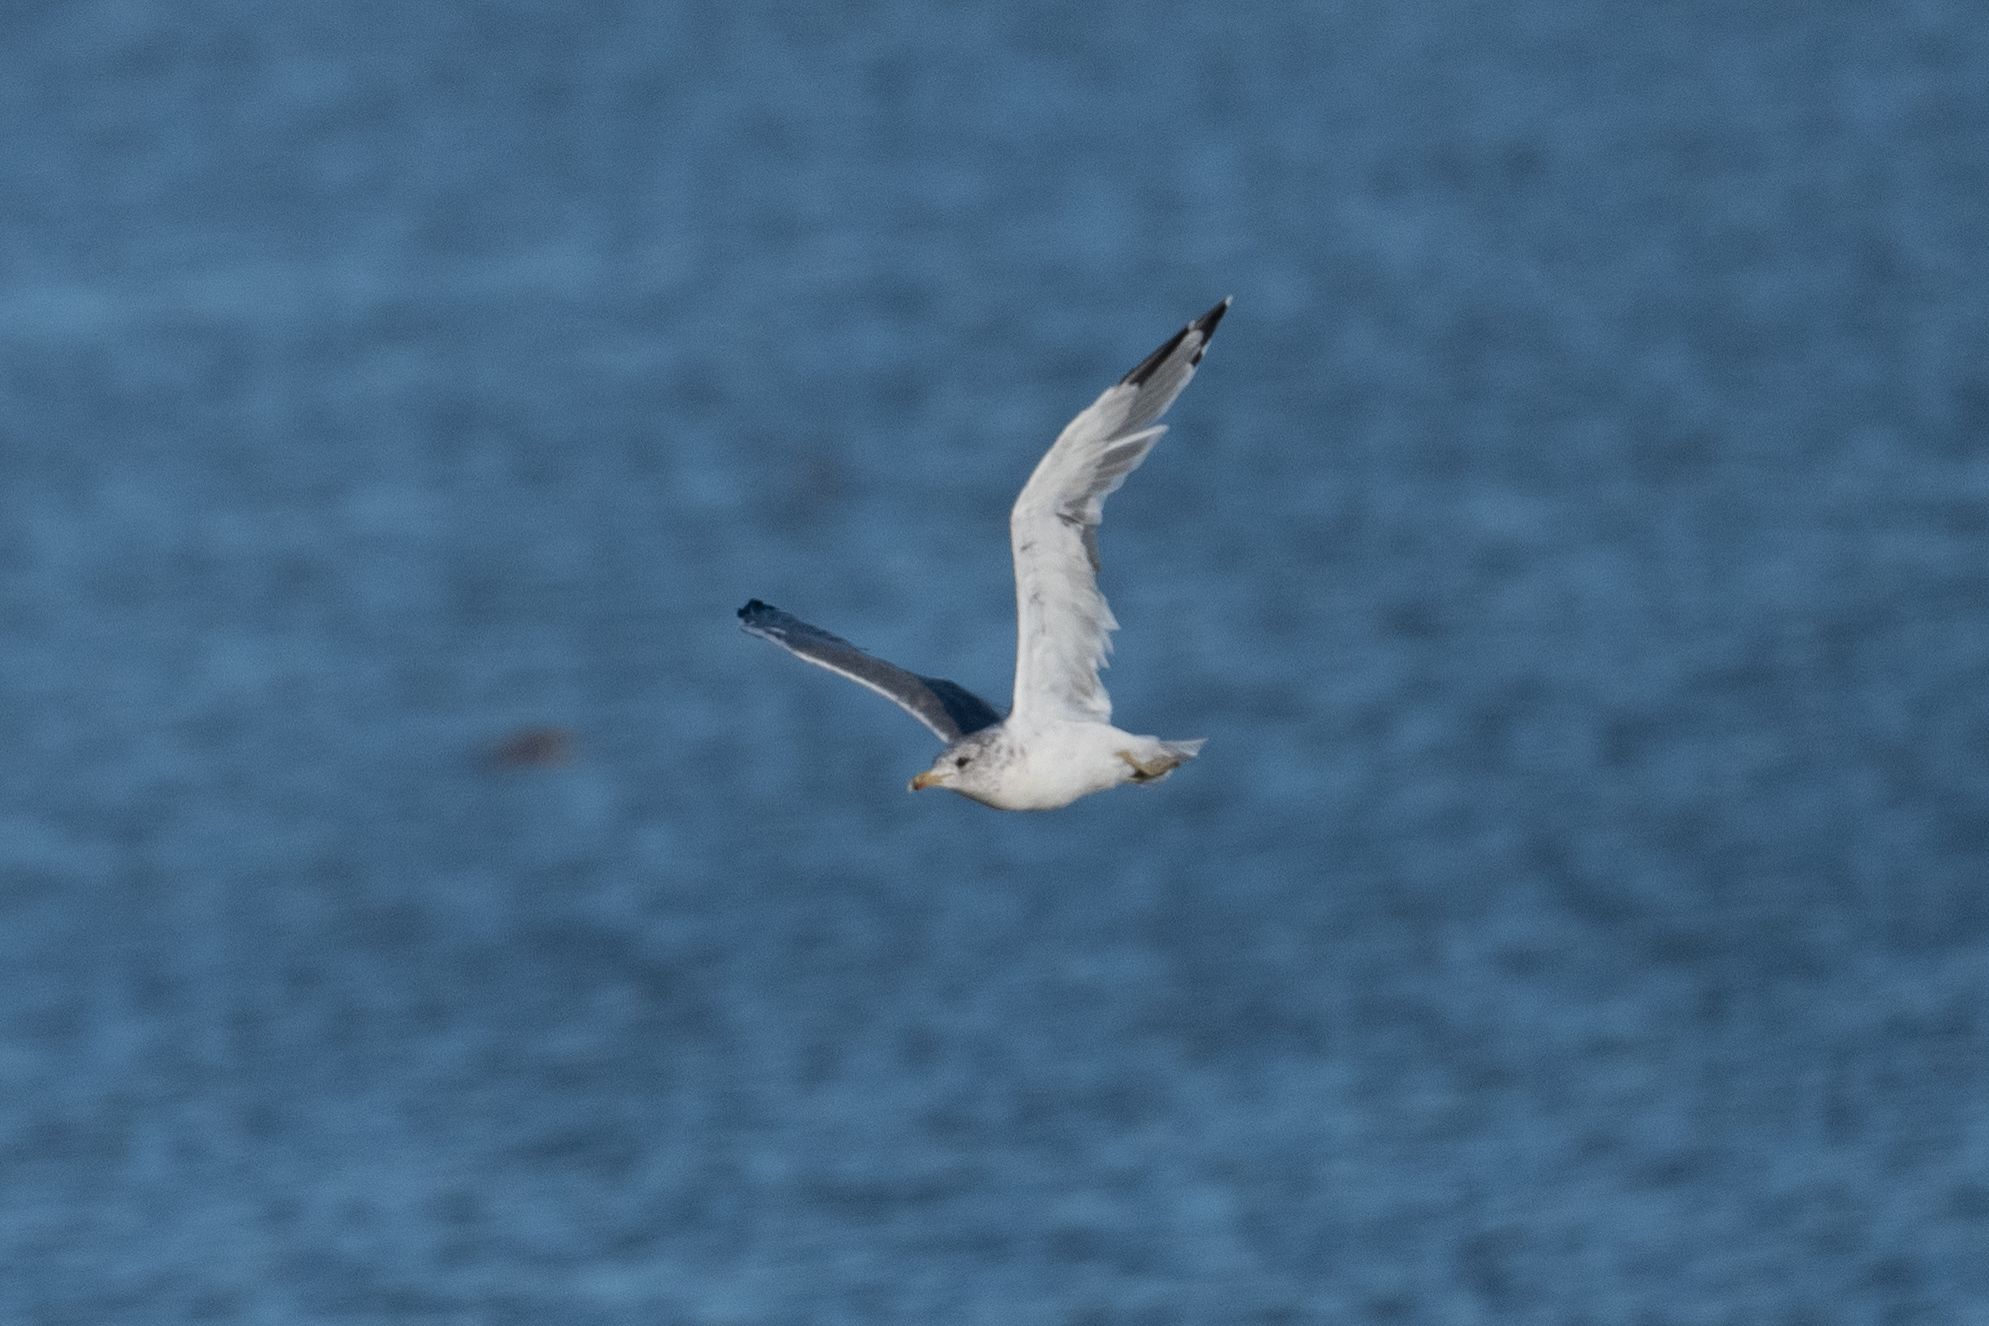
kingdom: Animalia
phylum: Chordata
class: Aves
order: Charadriiformes
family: Laridae
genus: Larus
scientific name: Larus californicus
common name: California gull
